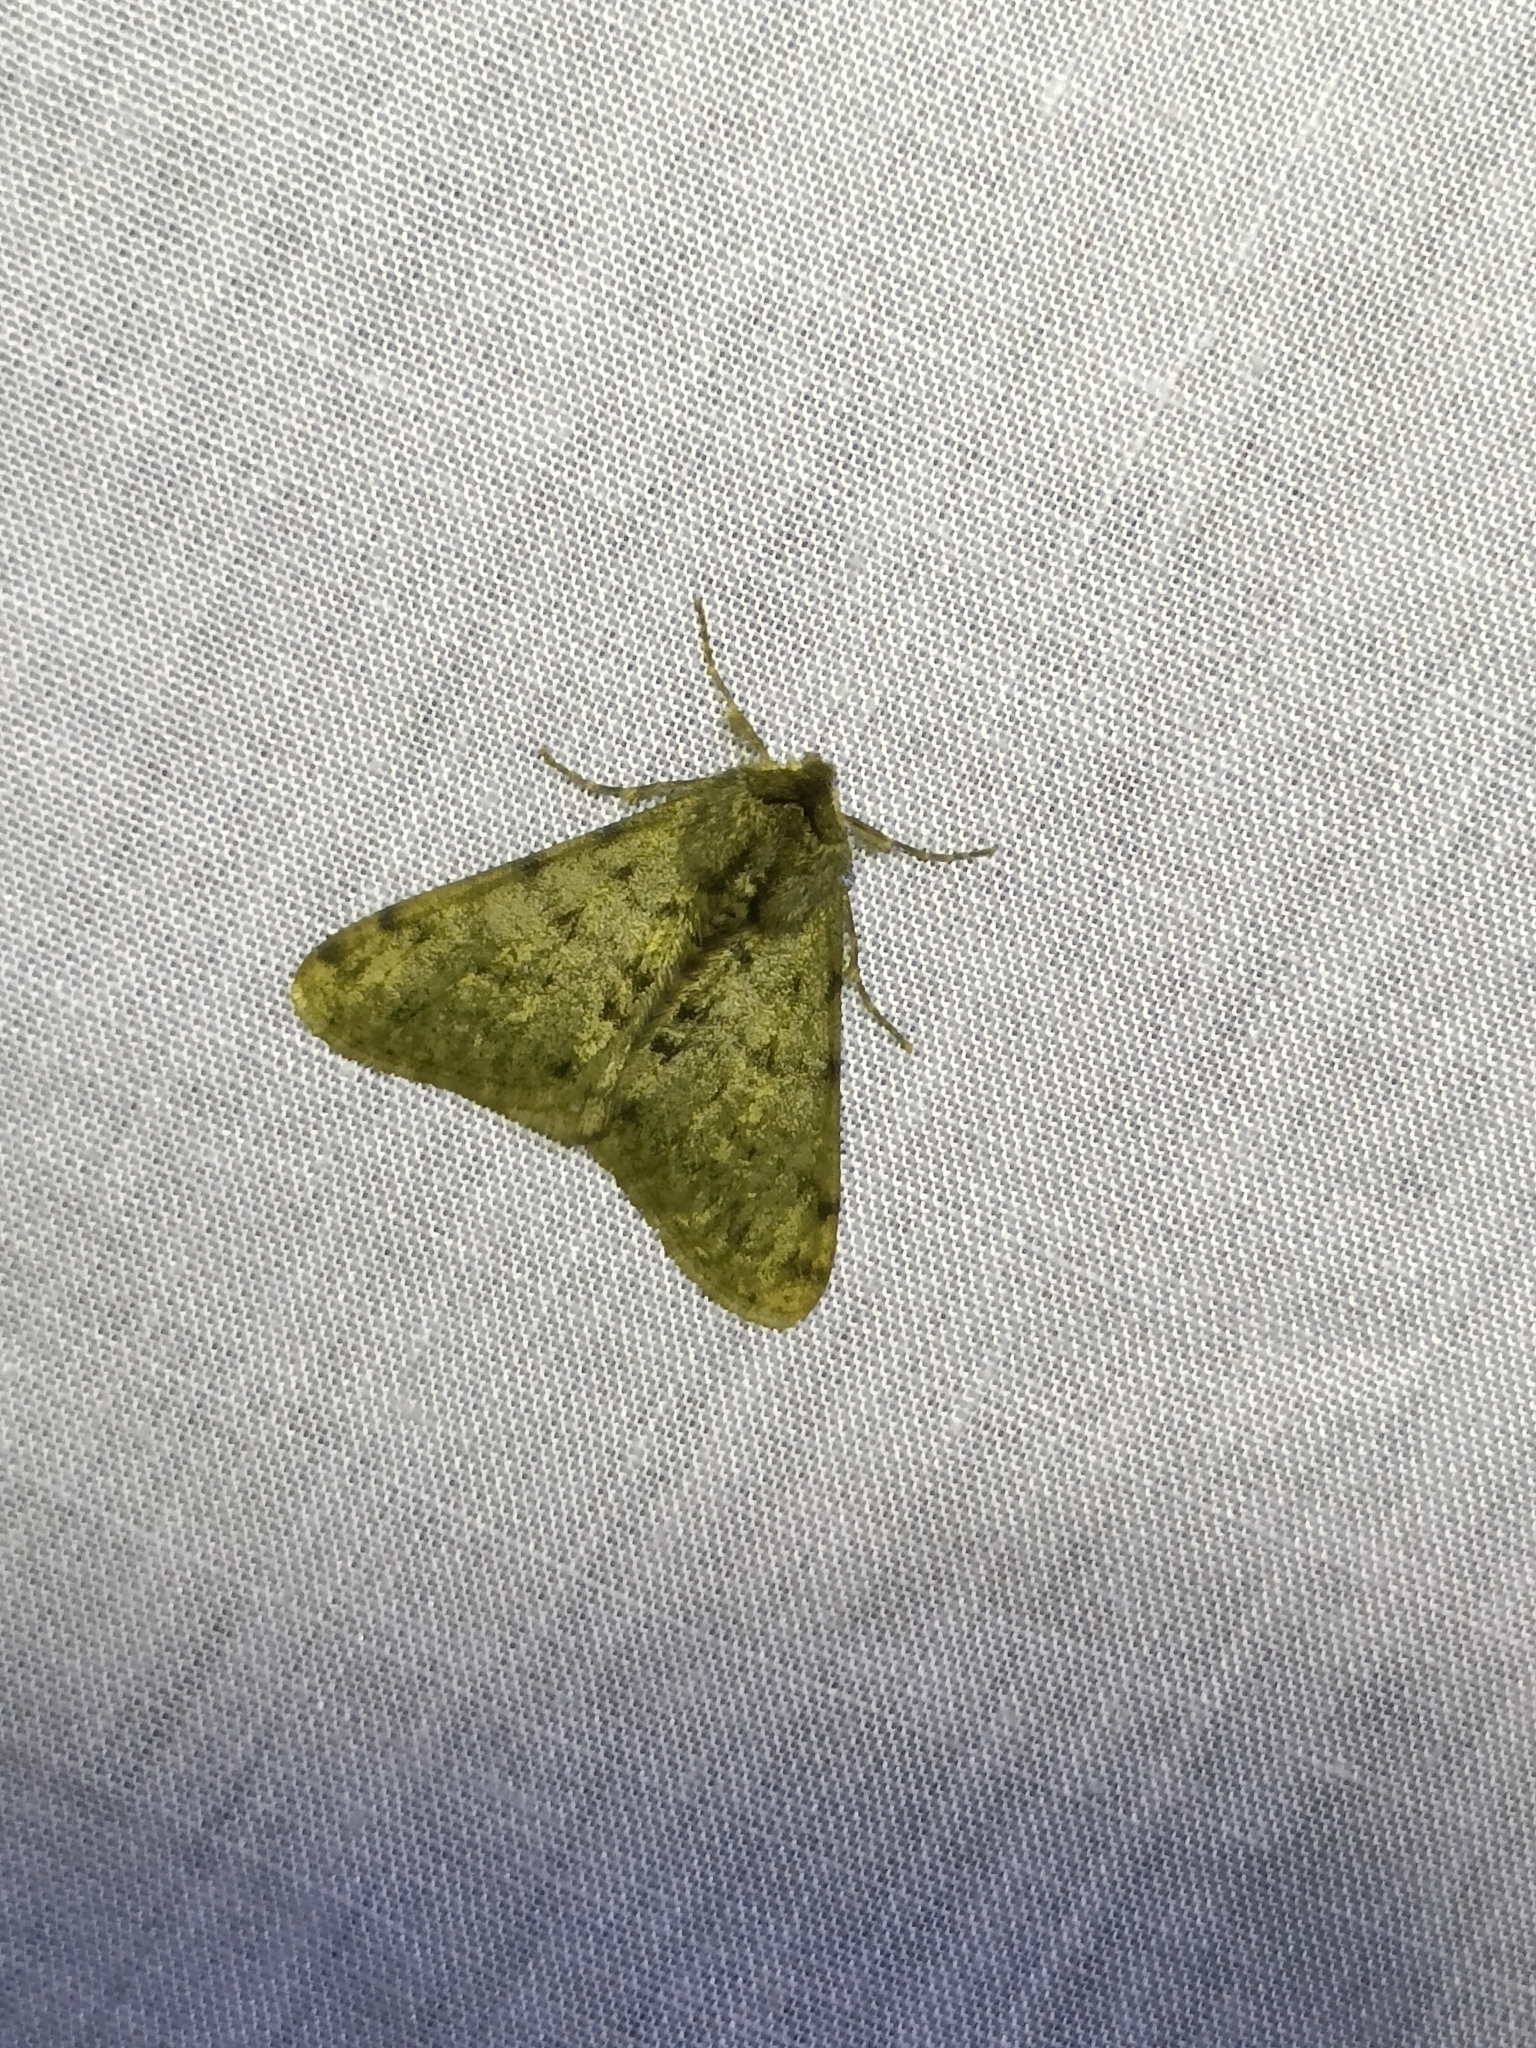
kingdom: Animalia
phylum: Arthropoda
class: Insecta
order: Lepidoptera
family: Geometridae
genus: Phigalia
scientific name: Phigalia pilosaria
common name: Pale brindled beauty
